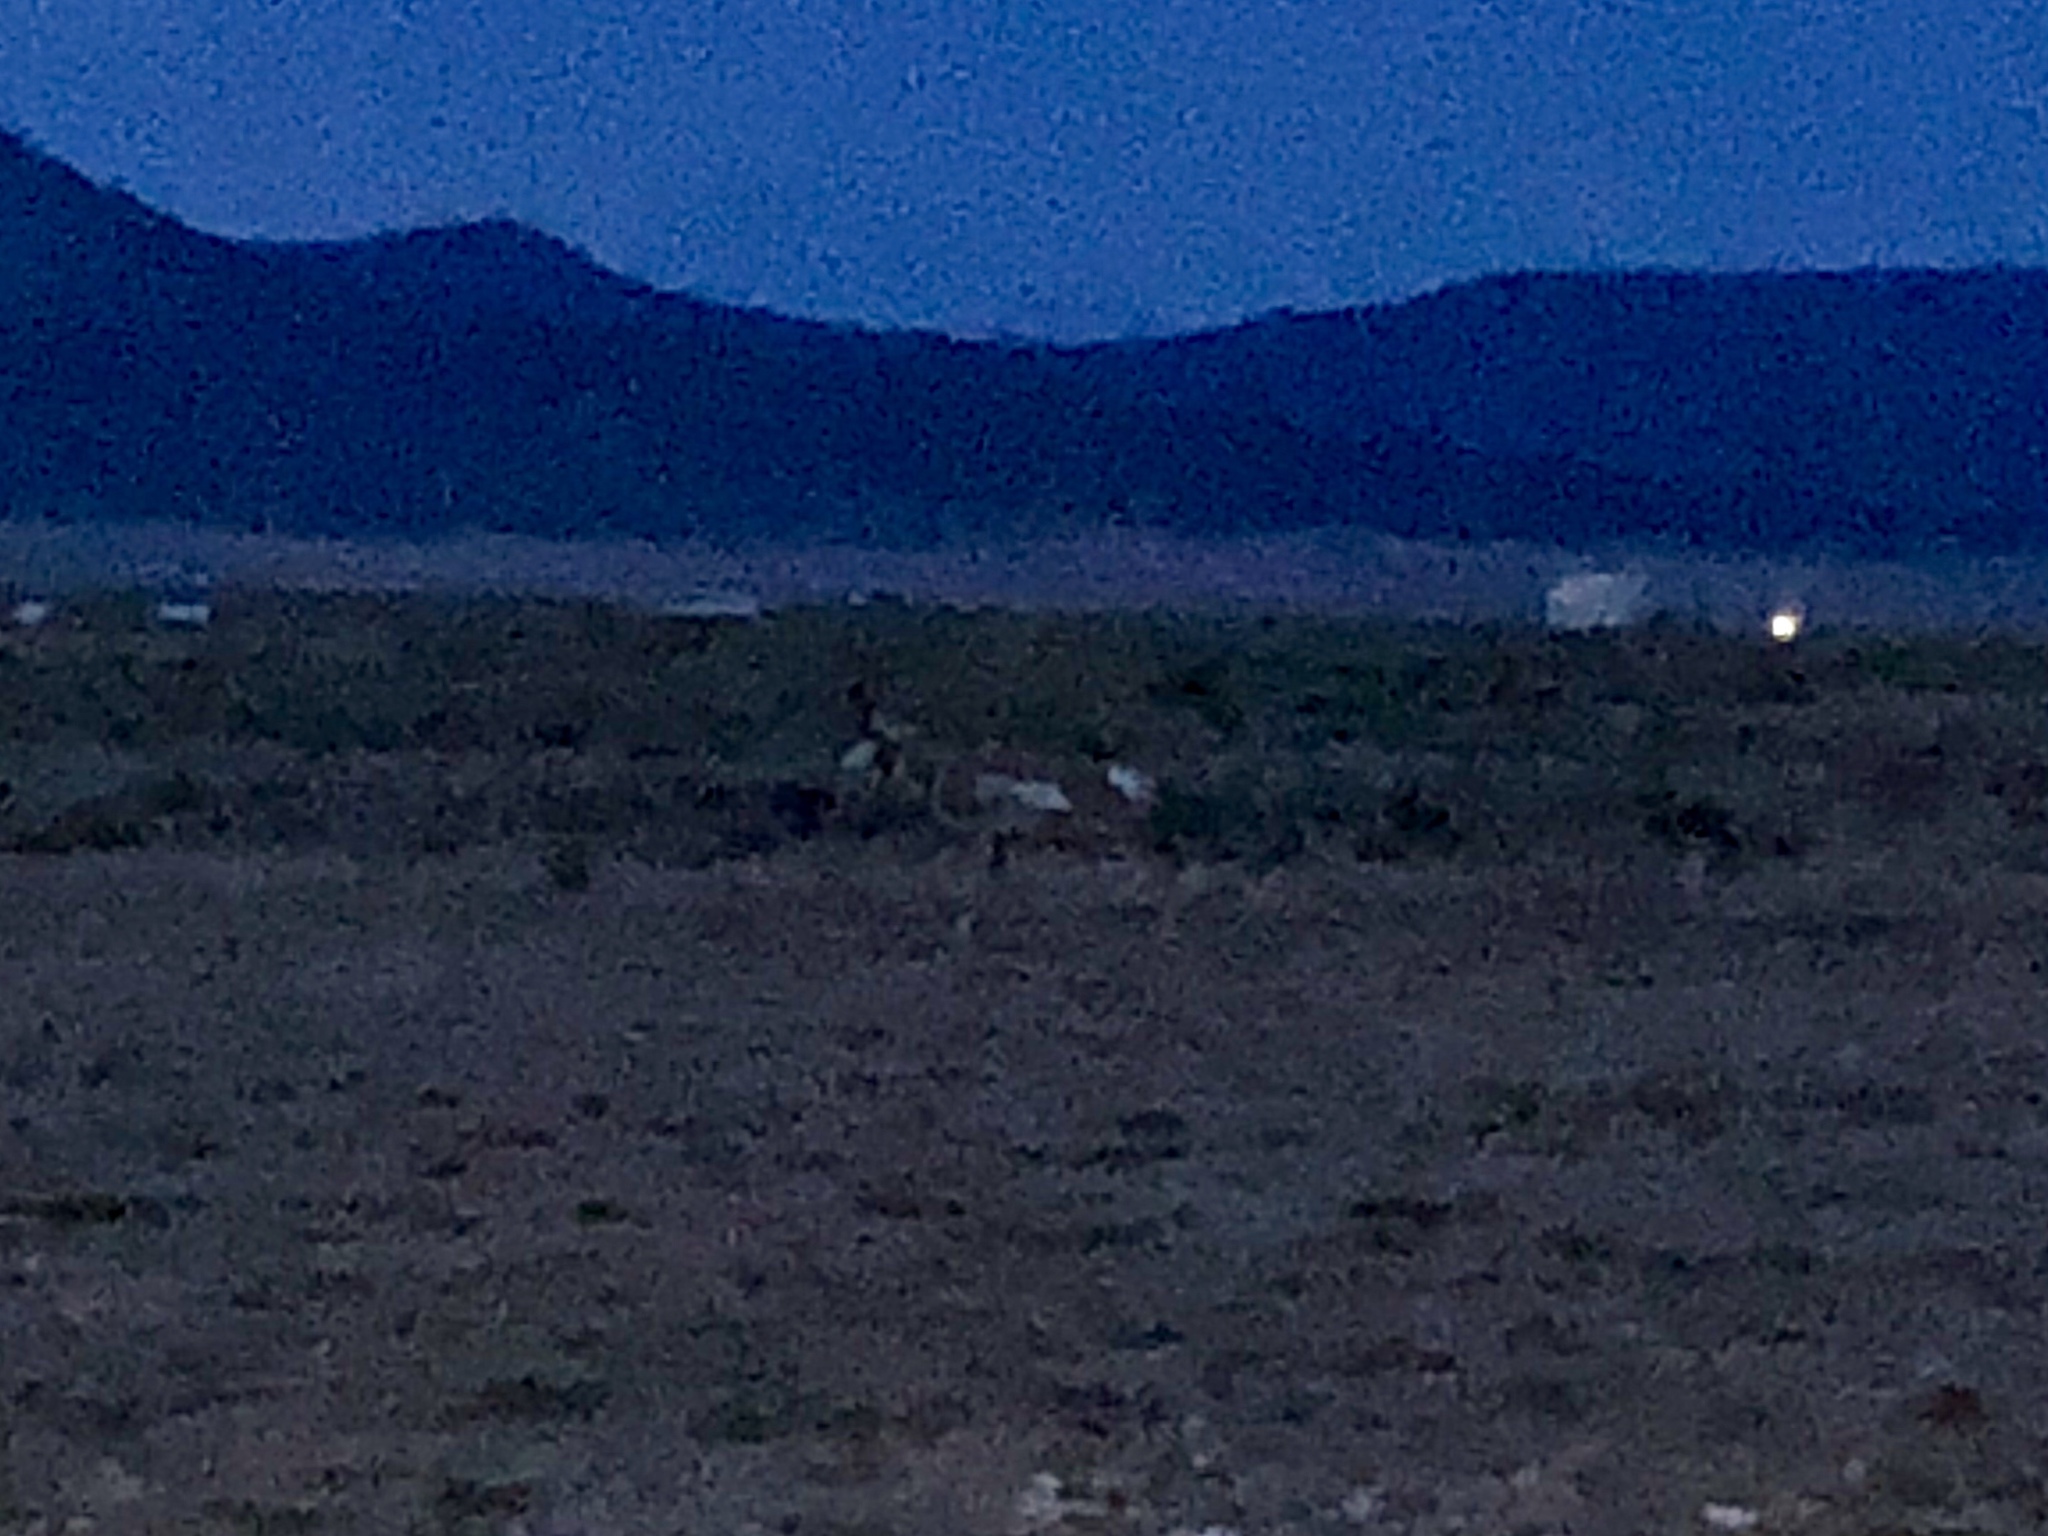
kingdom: Animalia
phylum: Chordata
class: Mammalia
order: Artiodactyla
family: Antilocapridae
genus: Antilocapra
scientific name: Antilocapra americana
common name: Pronghorn
